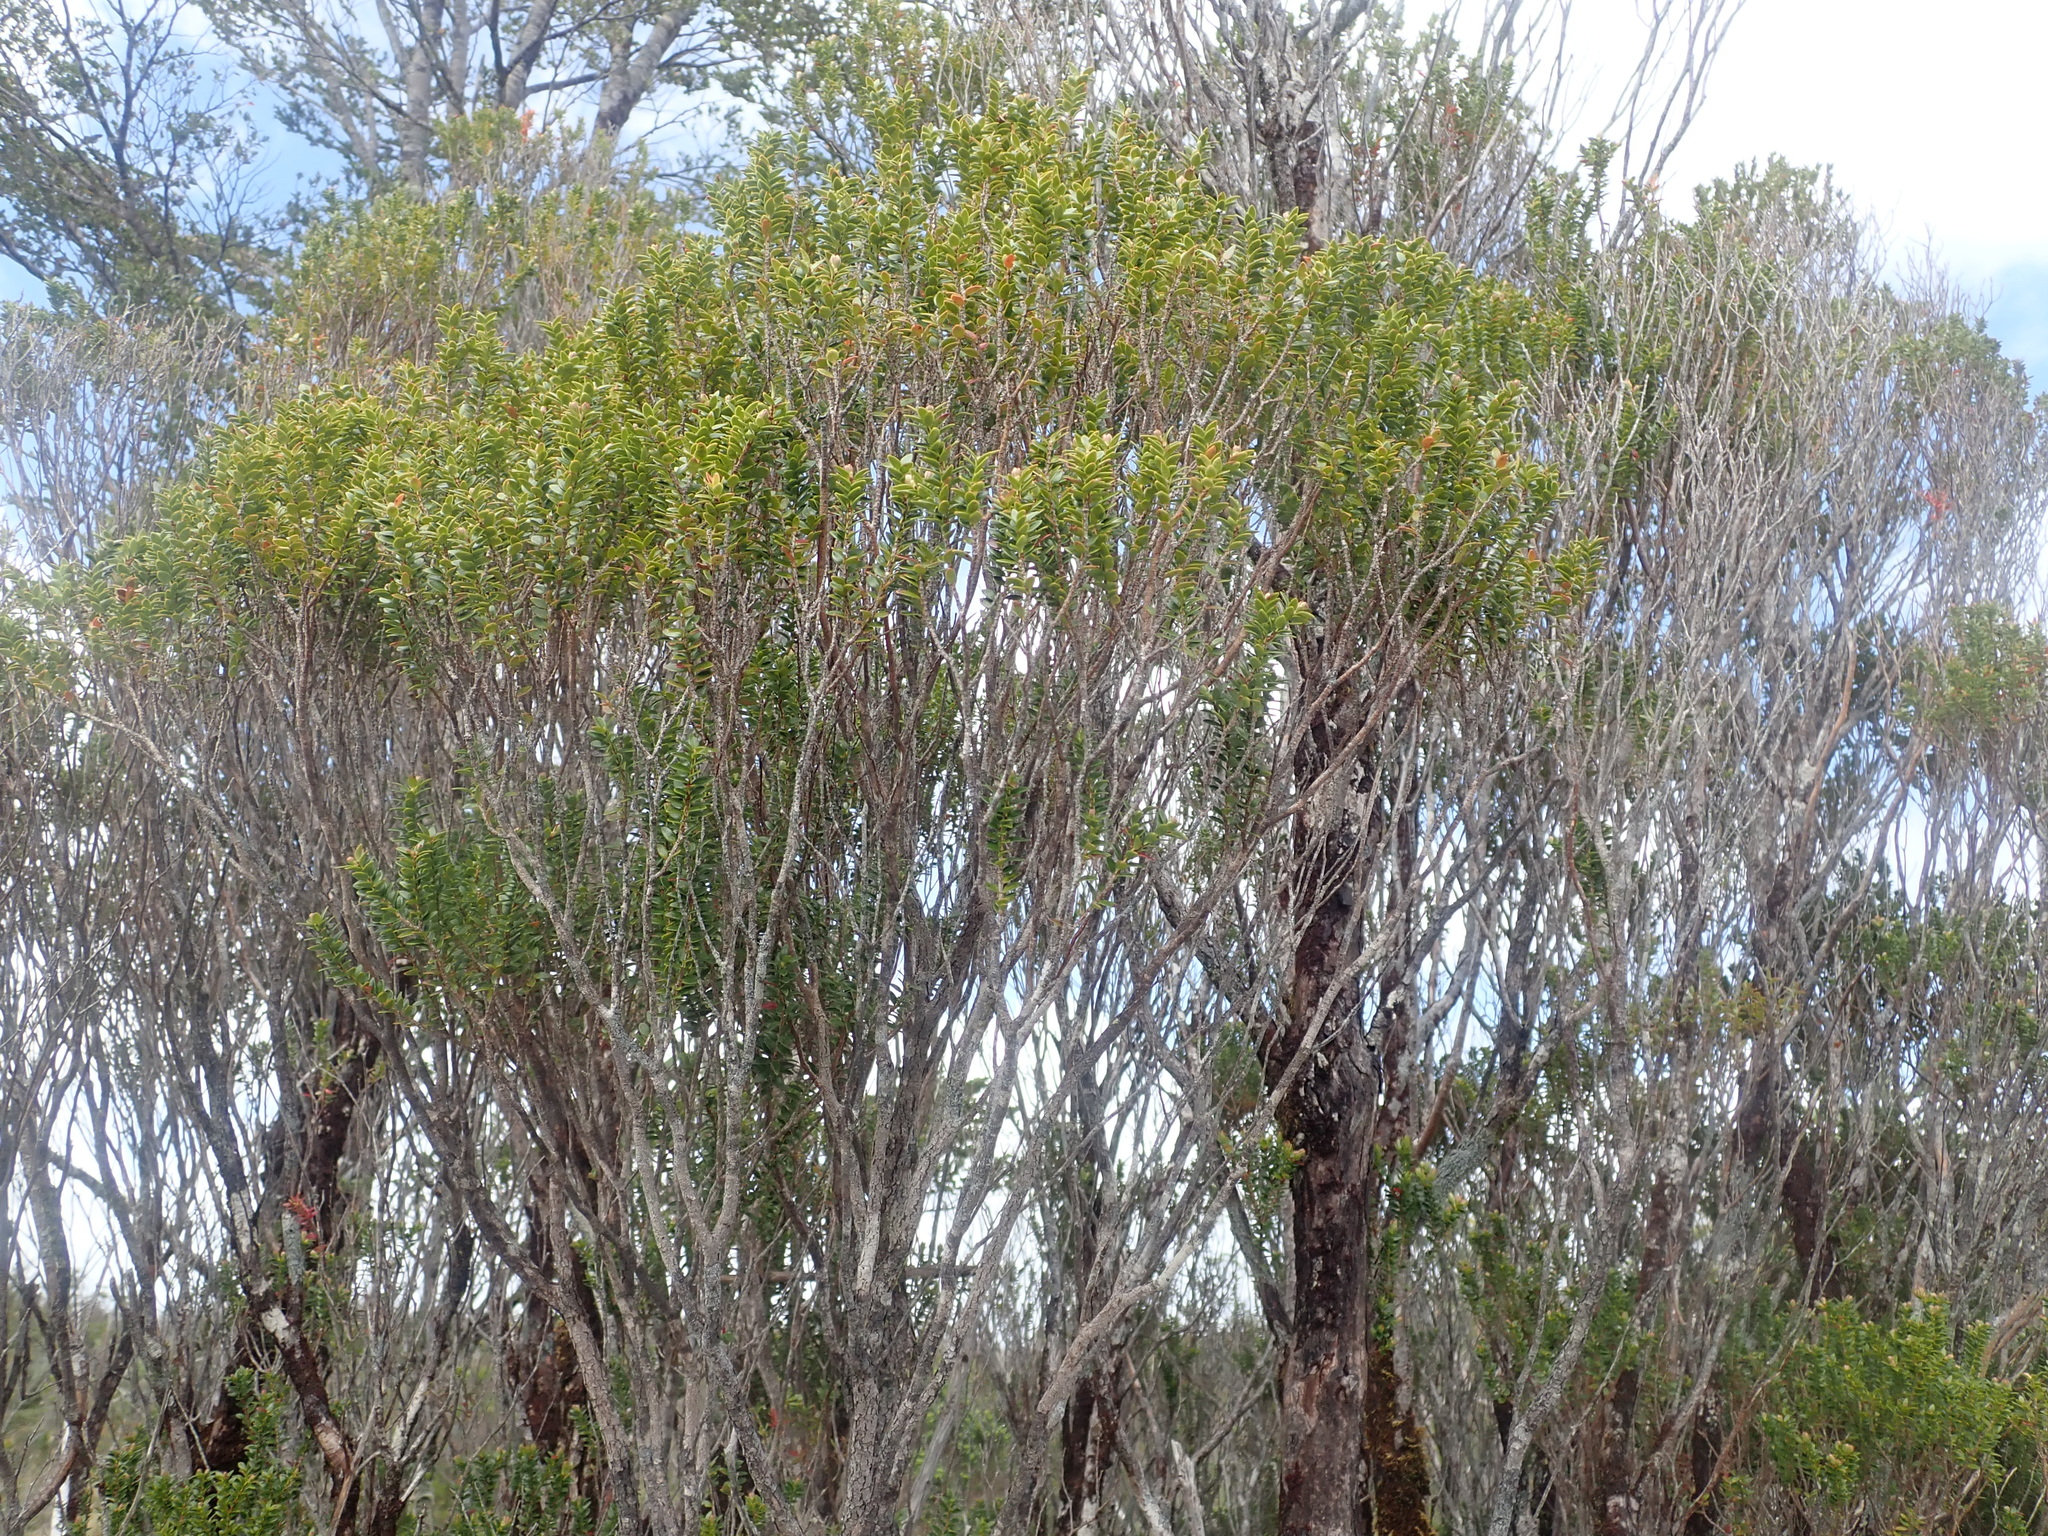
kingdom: Plantae
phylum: Tracheophyta
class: Magnoliopsida
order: Myrtales
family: Myrtaceae
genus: Tepualia
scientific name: Tepualia stipularis
